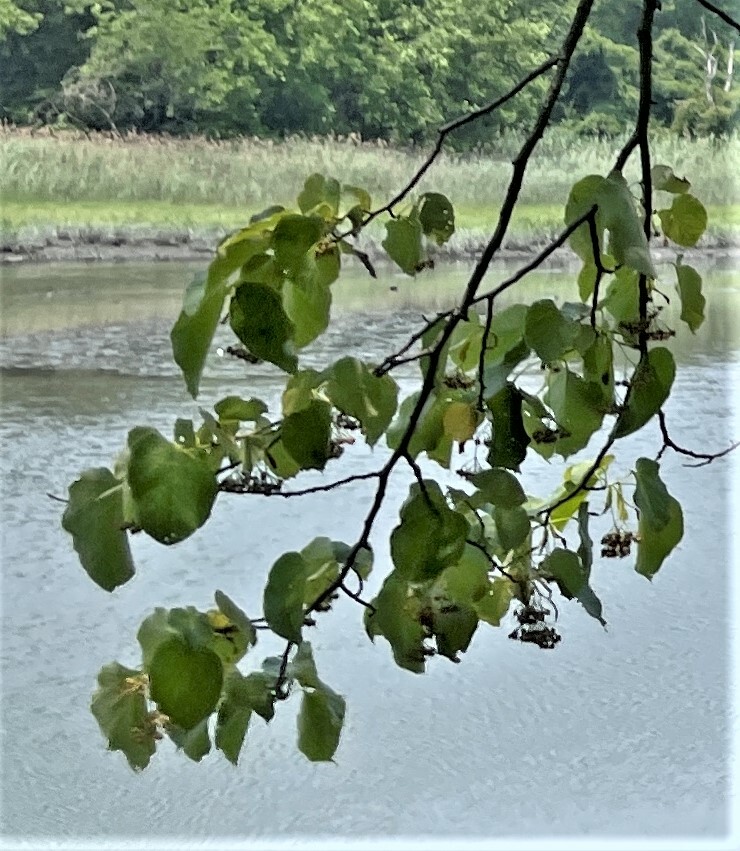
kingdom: Plantae
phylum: Tracheophyta
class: Magnoliopsida
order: Malvales
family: Malvaceae
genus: Tilia
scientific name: Tilia americana
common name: Basswood
